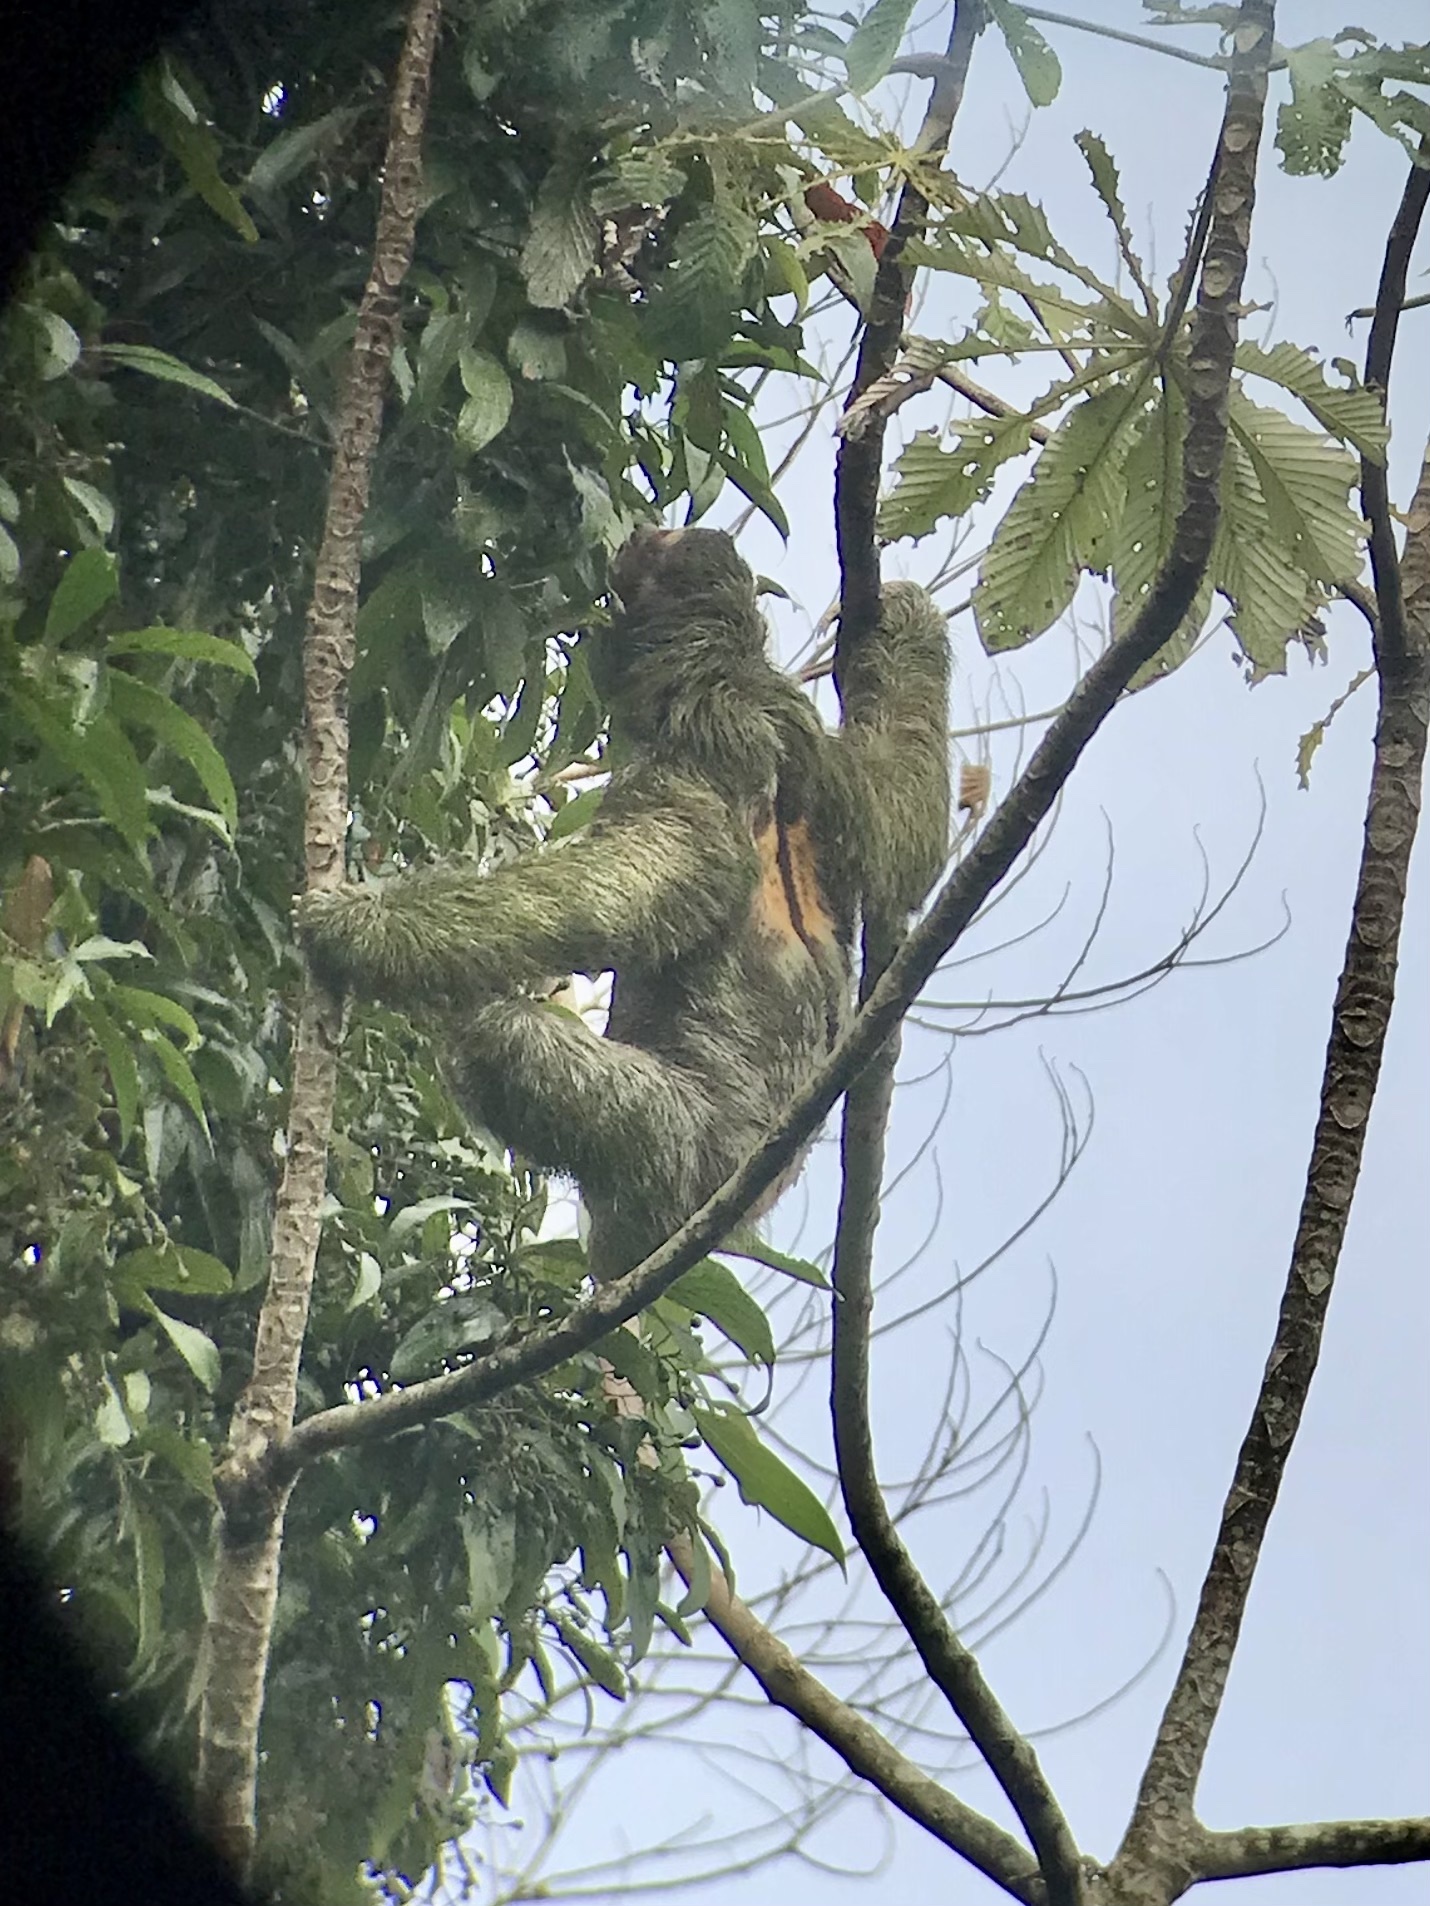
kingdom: Animalia
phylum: Chordata
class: Mammalia
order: Pilosa
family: Bradypodidae
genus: Bradypus
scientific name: Bradypus variegatus
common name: Brown-throated three-toed sloth
